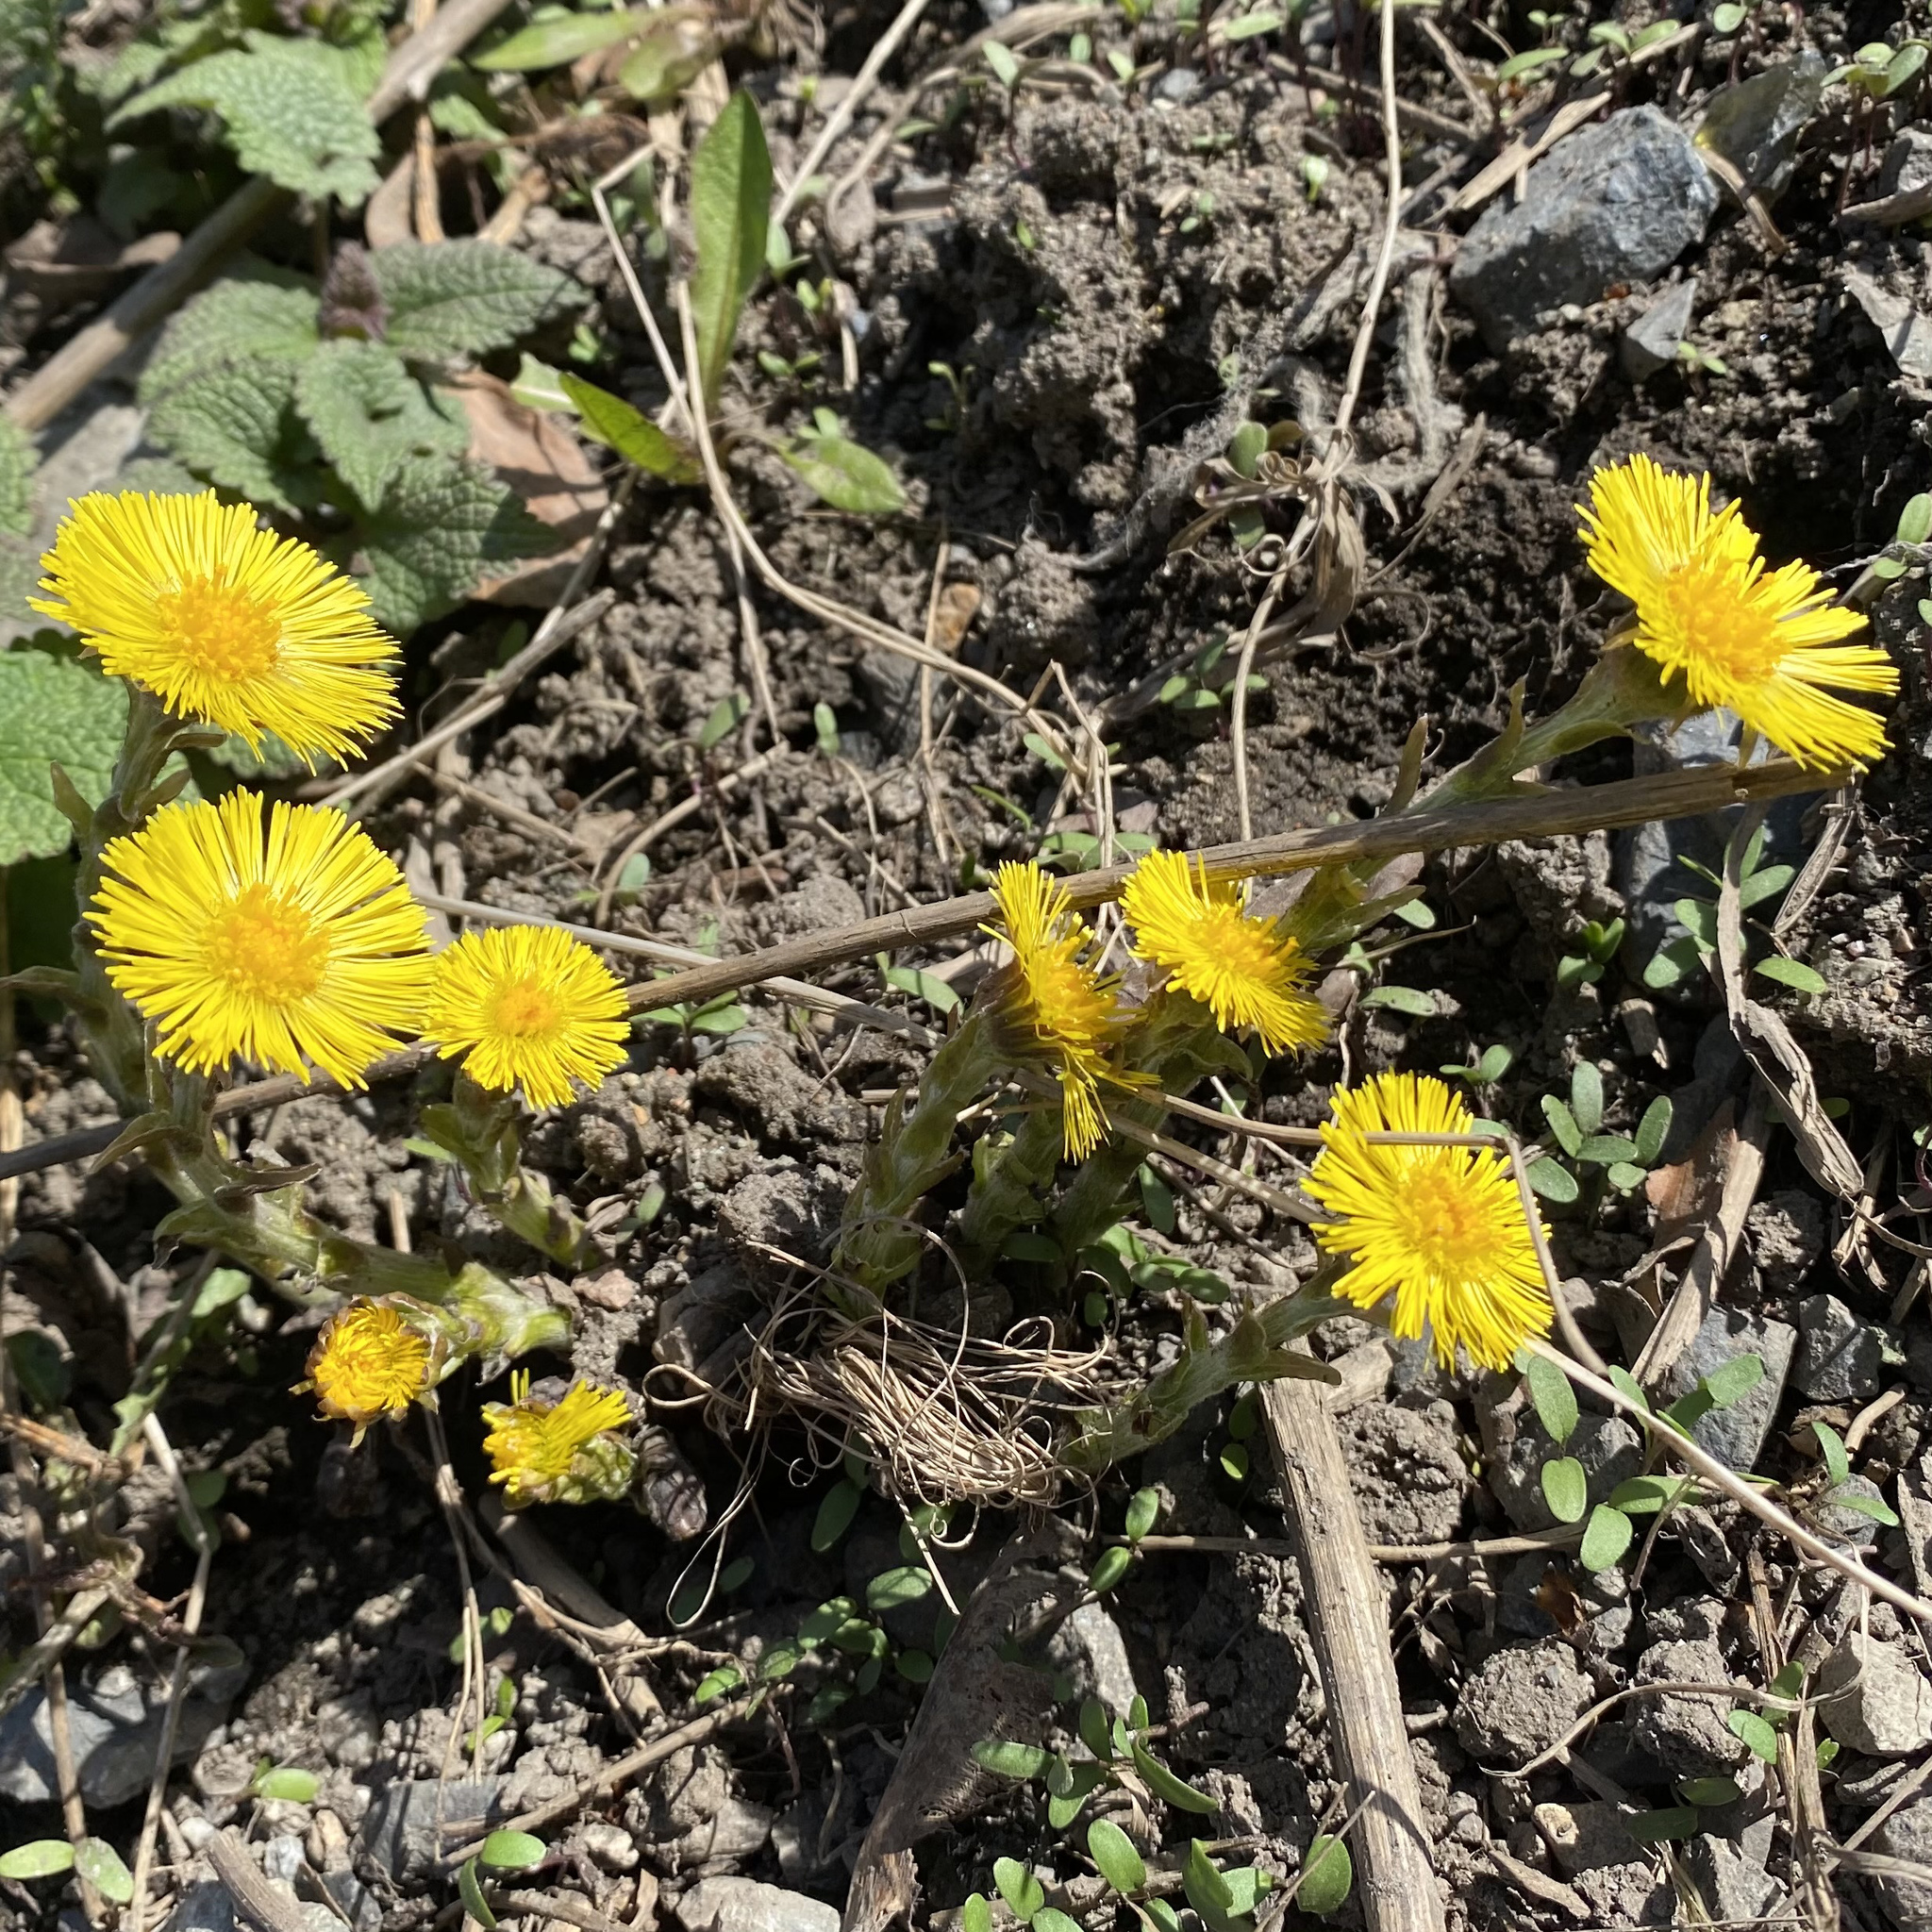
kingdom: Plantae
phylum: Tracheophyta
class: Magnoliopsida
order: Asterales
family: Asteraceae
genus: Tussilago
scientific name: Tussilago farfara
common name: Coltsfoot
